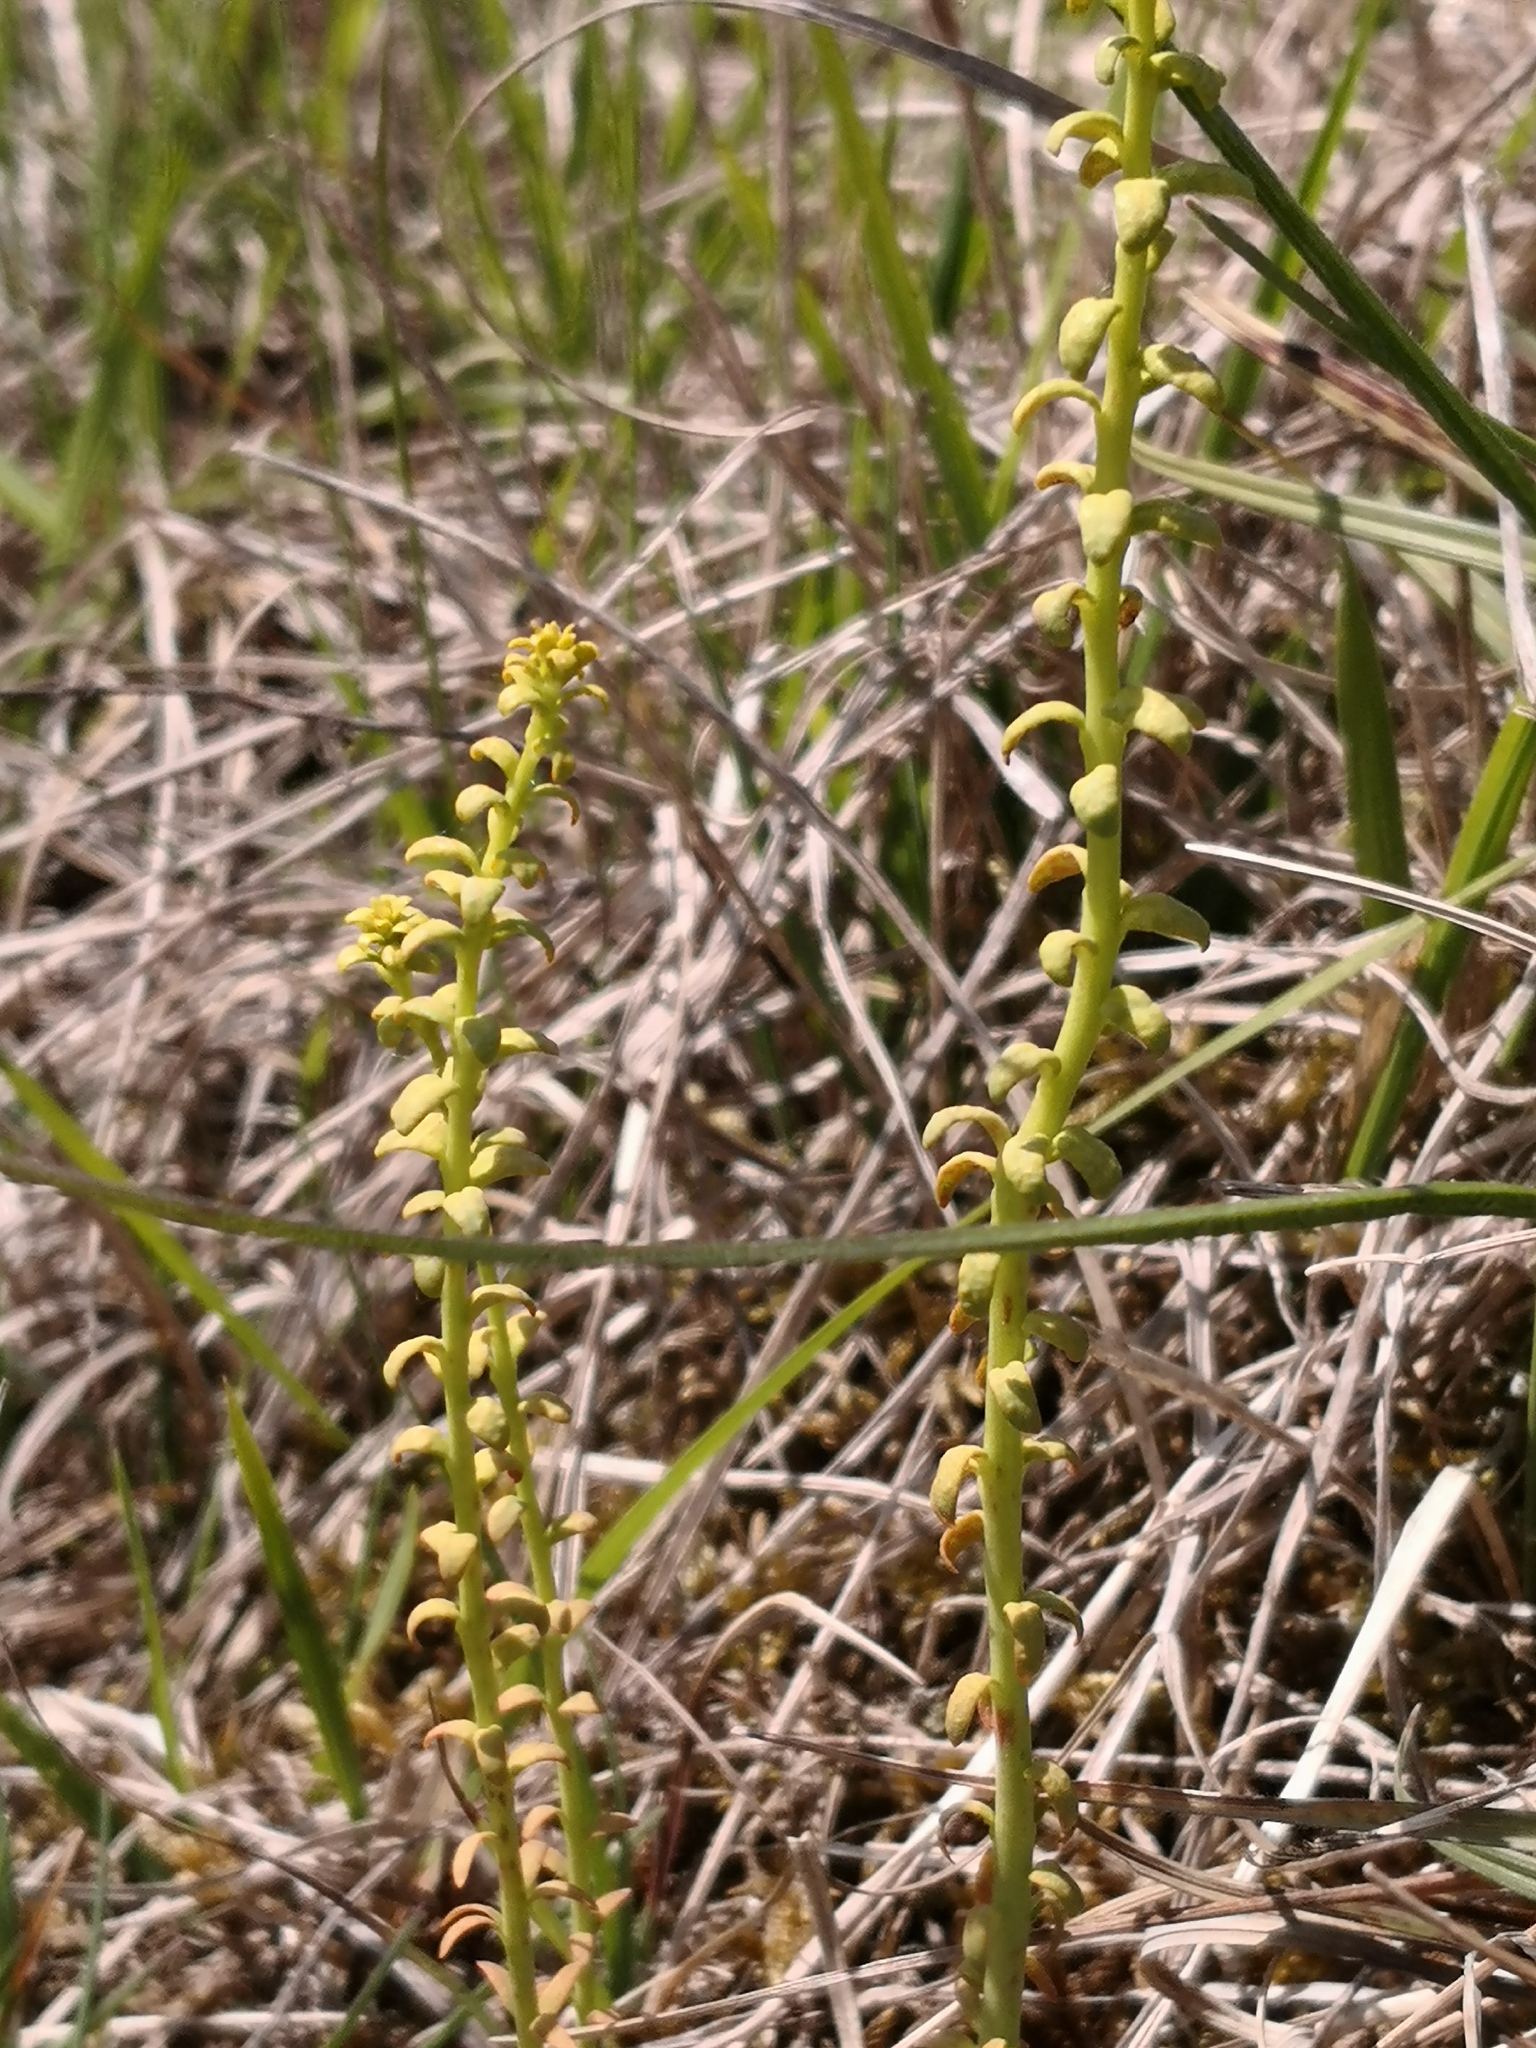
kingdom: Plantae
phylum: Tracheophyta
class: Magnoliopsida
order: Malpighiales
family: Euphorbiaceae
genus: Euphorbia
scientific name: Euphorbia cyparissias
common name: Cypress spurge
